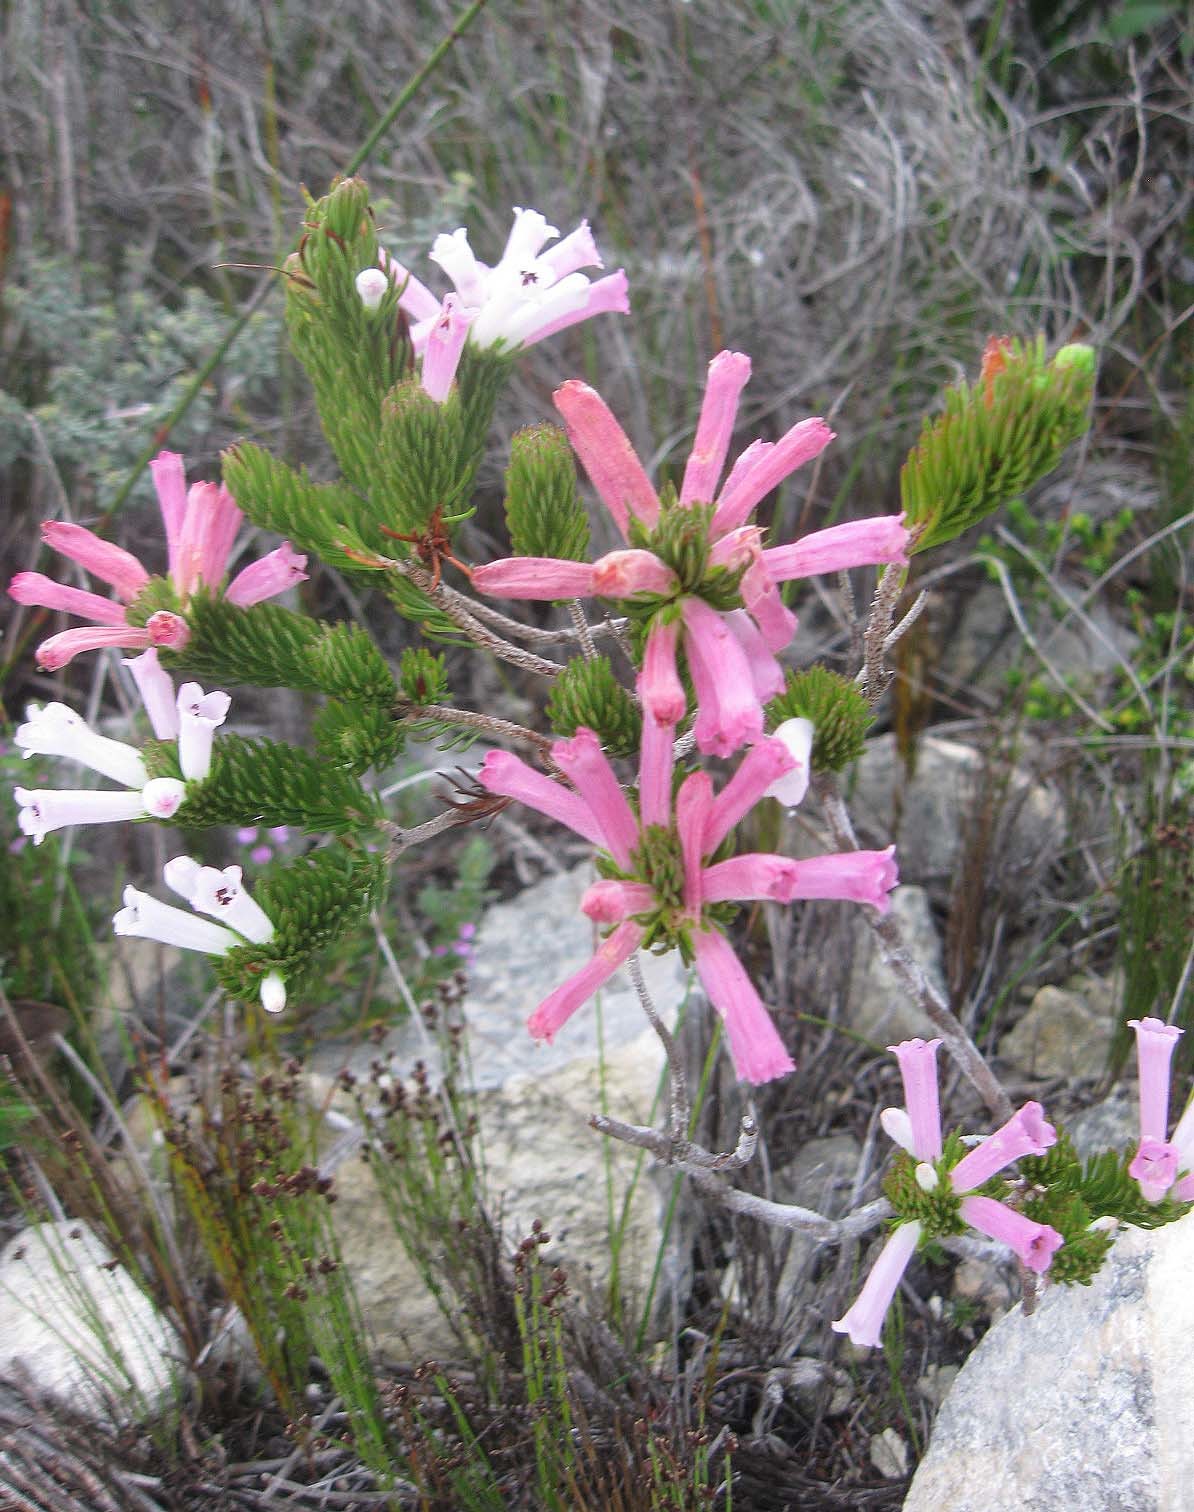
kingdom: Plantae
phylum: Tracheophyta
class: Magnoliopsida
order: Ericales
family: Ericaceae
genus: Erica
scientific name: Erica viscaria
